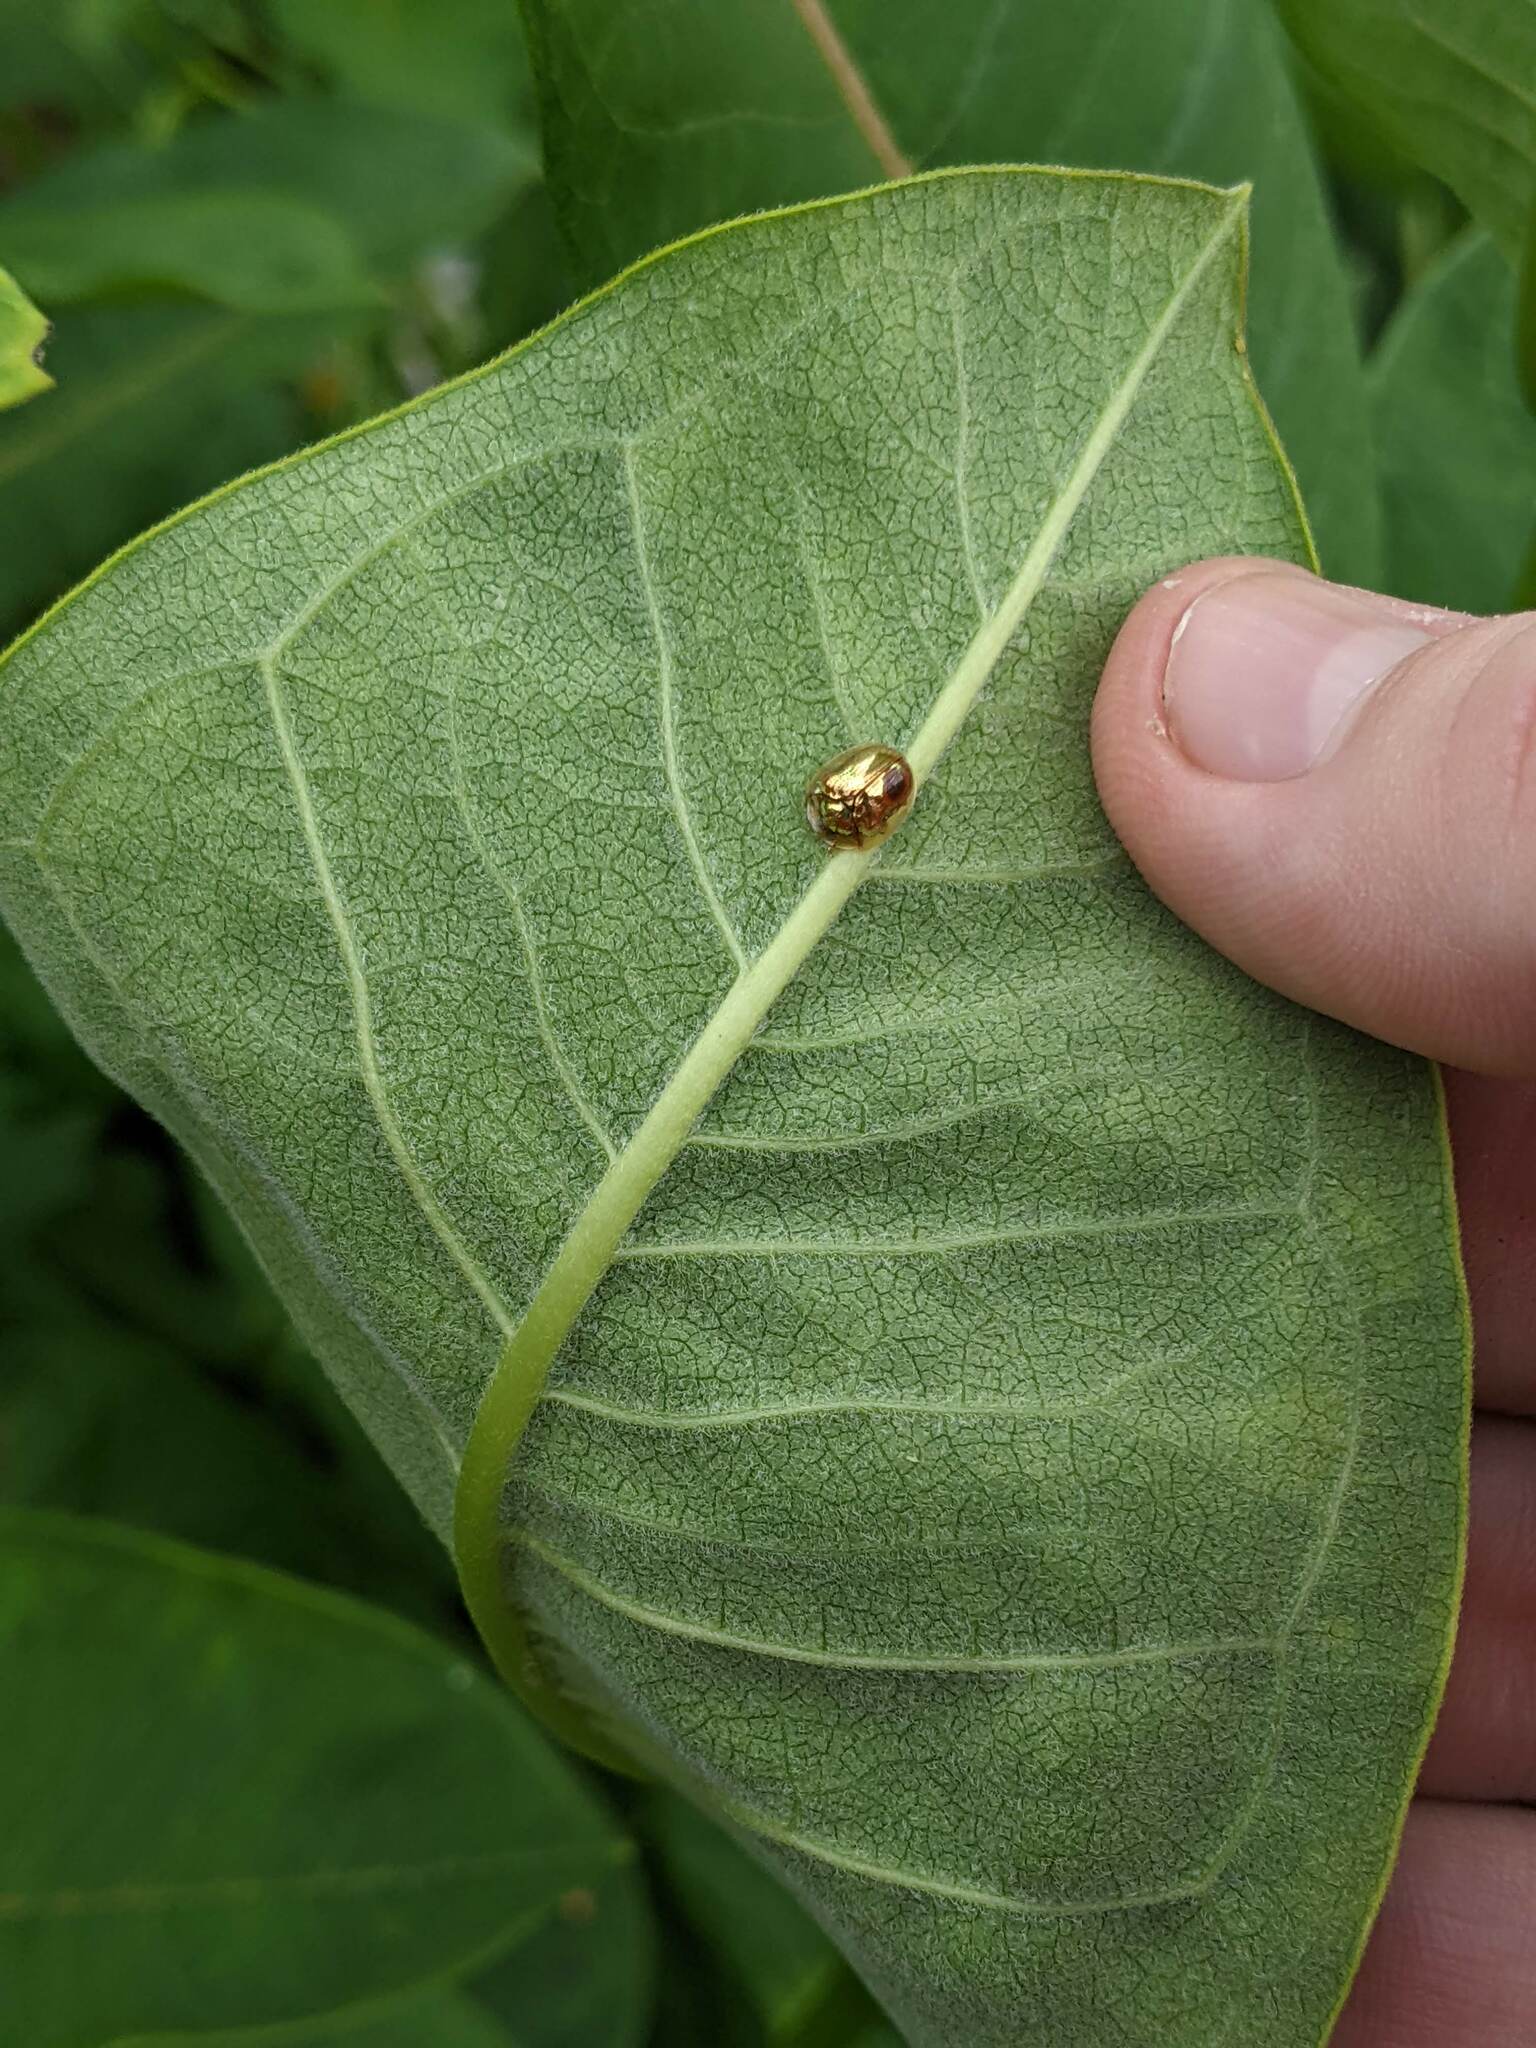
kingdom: Animalia
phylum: Arthropoda
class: Insecta
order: Coleoptera
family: Chrysomelidae
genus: Charidotella
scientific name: Charidotella sexpunctata
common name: Golden tortoise beetle
